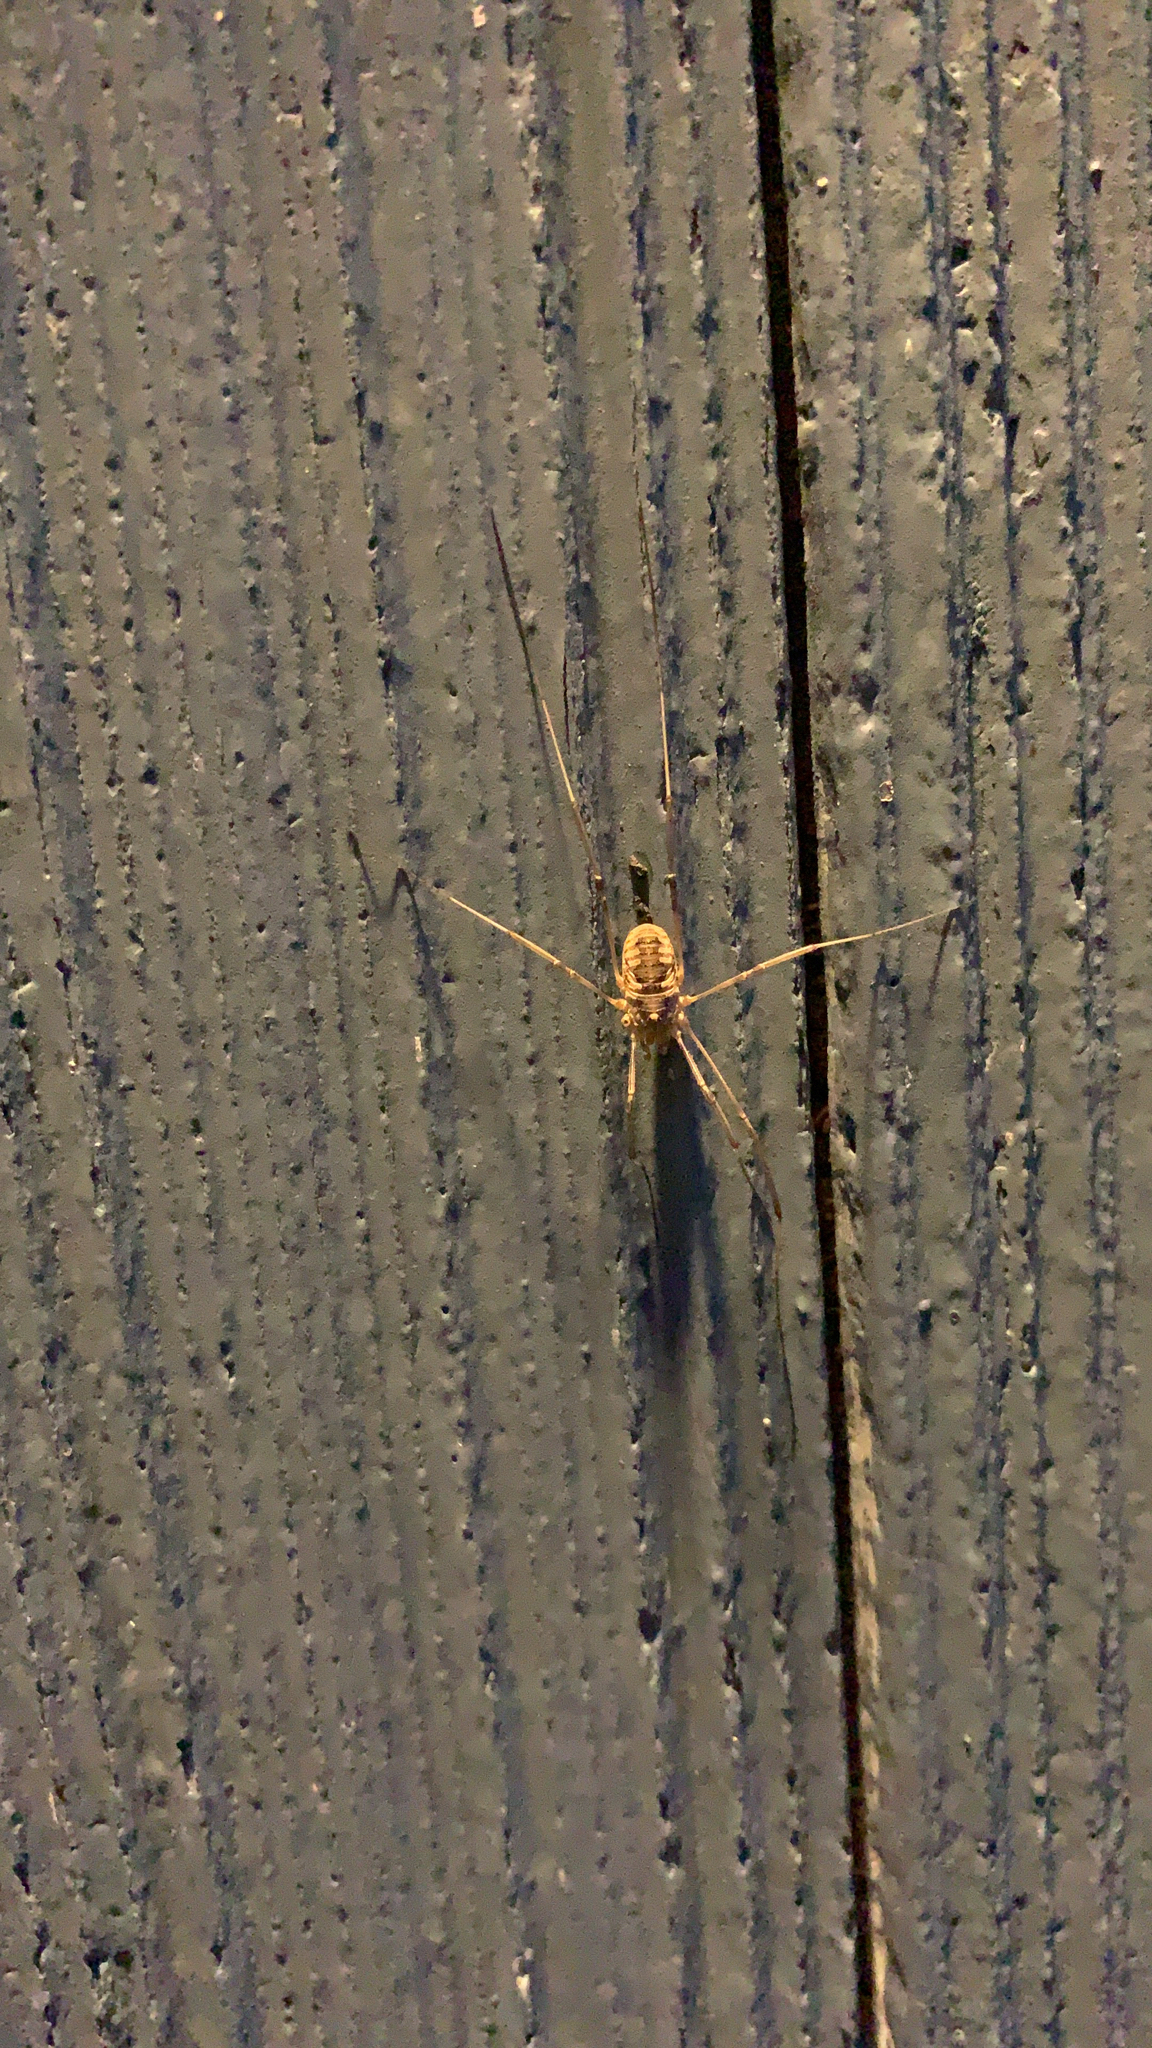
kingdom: Animalia
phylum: Arthropoda
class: Arachnida
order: Opiliones
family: Phalangiidae
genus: Phalangium
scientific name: Phalangium opilio
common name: Daddy longleg
